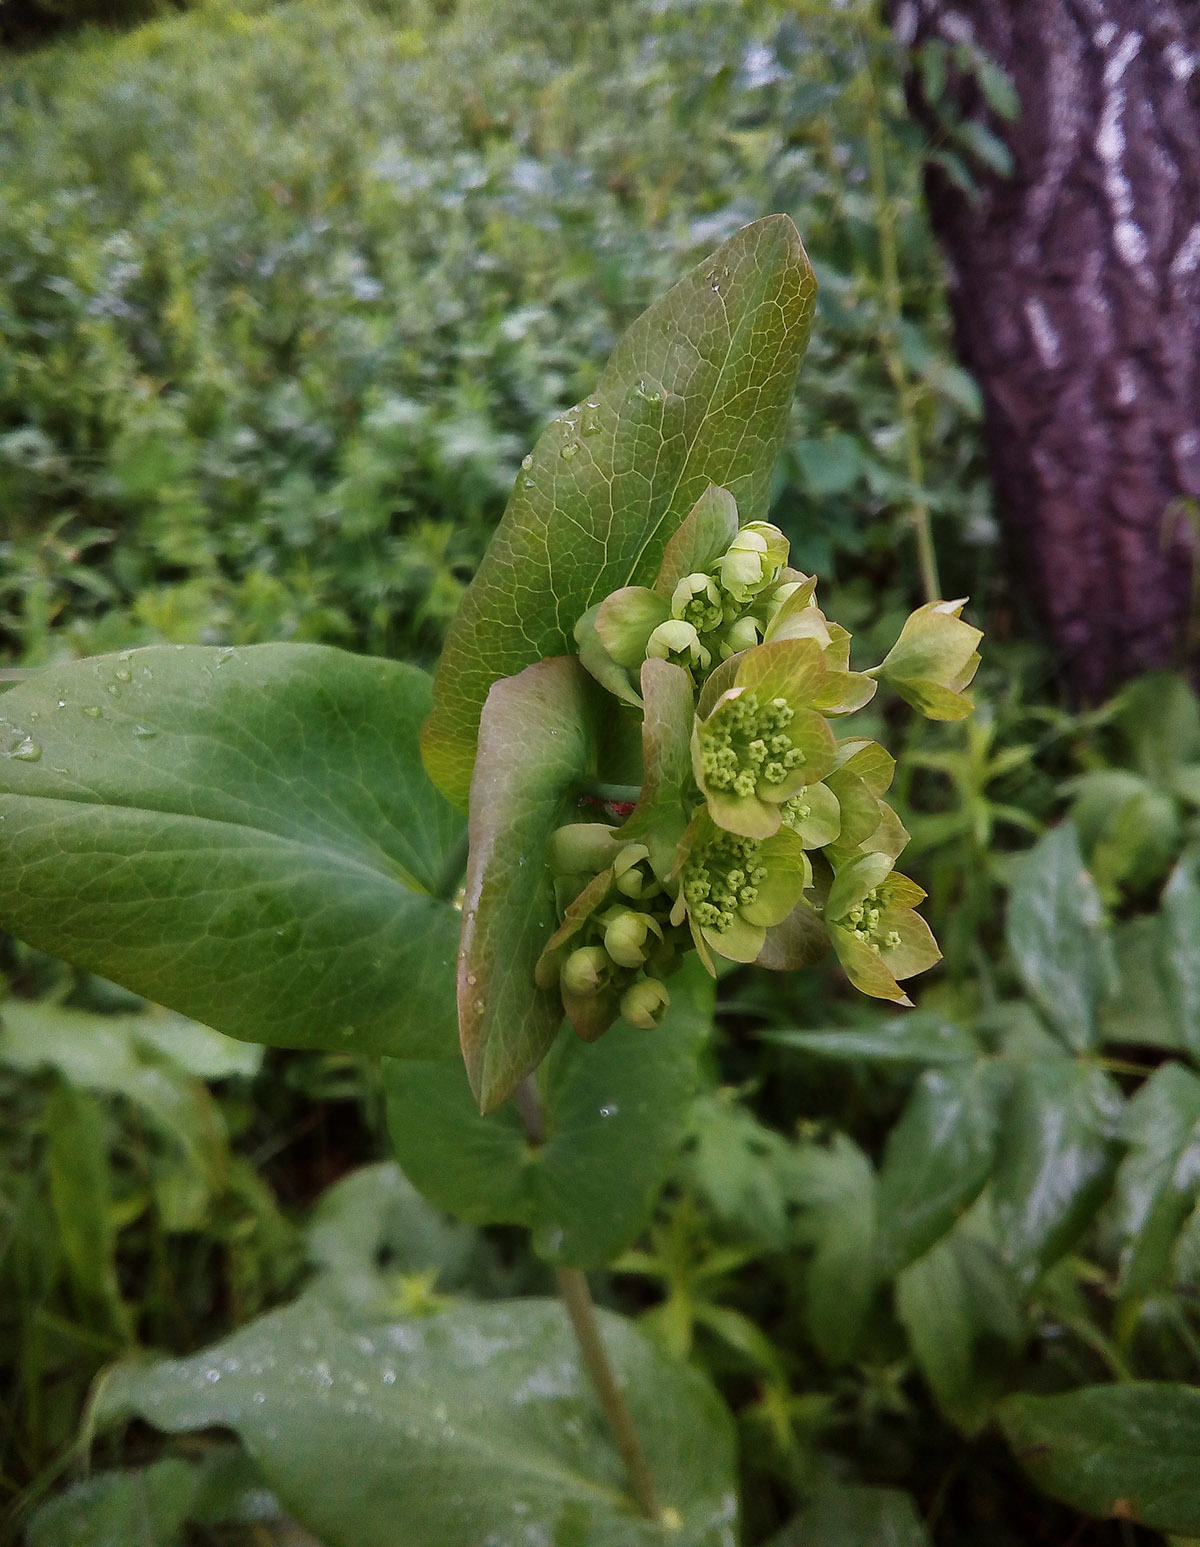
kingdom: Plantae
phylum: Tracheophyta
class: Magnoliopsida
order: Apiales
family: Apiaceae
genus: Bupleurum
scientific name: Bupleurum aureum
